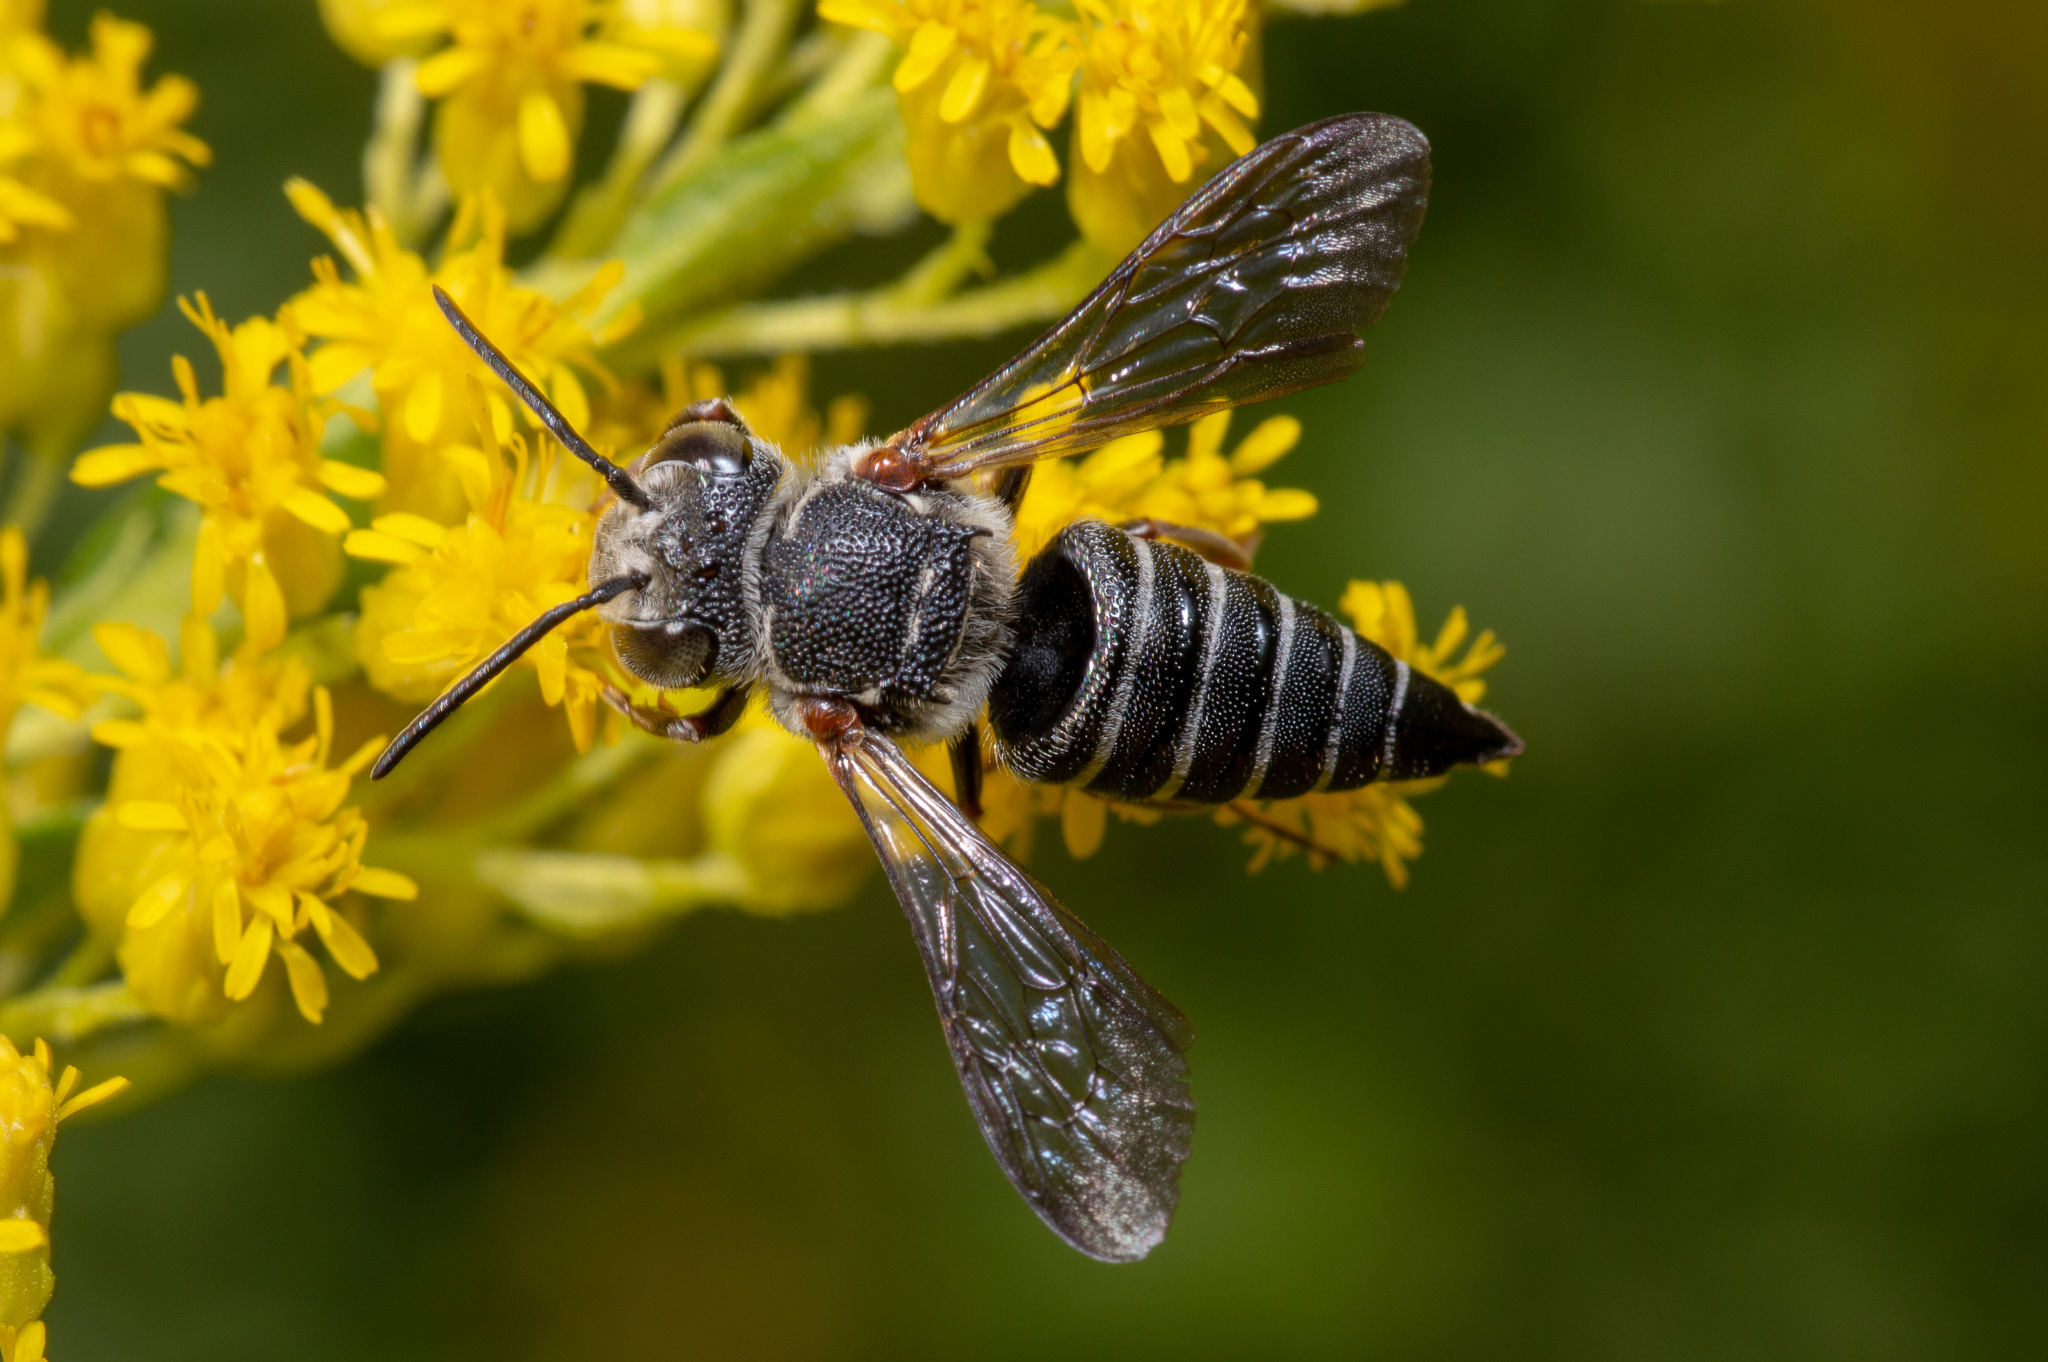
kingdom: Animalia
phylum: Arthropoda
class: Insecta
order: Hymenoptera
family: Megachilidae
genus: Coelioxys
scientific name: Coelioxys sayi
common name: Say's cuckoo leaf-cutter bee
